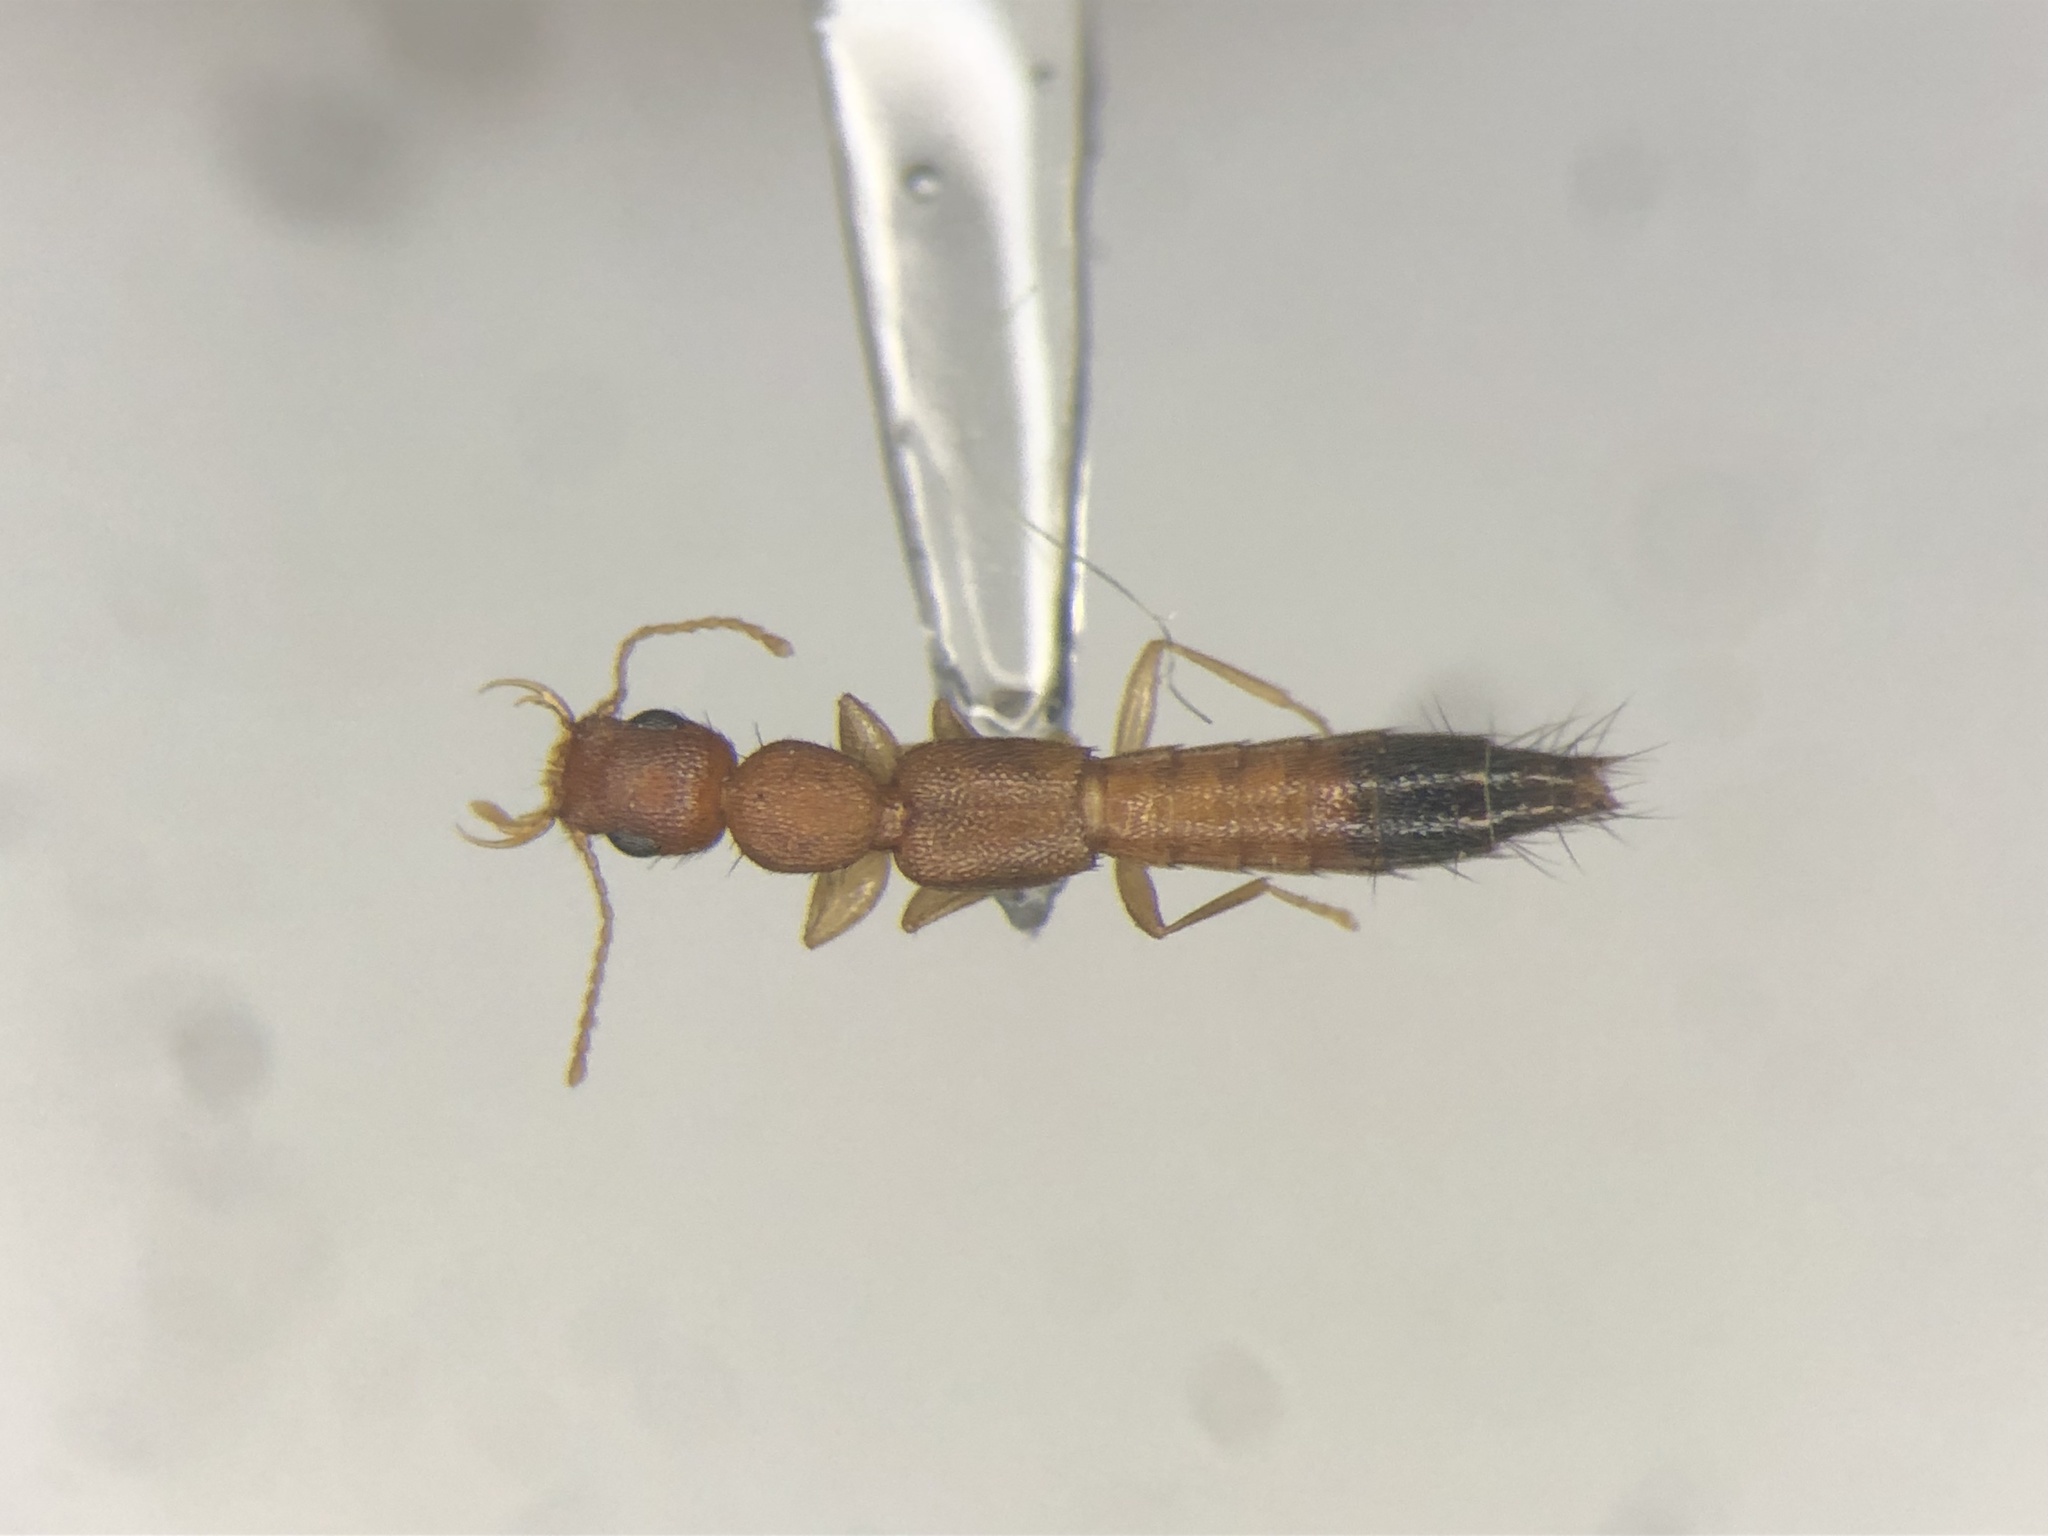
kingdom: Animalia
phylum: Arthropoda
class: Insecta
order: Coleoptera
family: Staphylinidae
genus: Astenus
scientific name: Astenus discopunctatus
